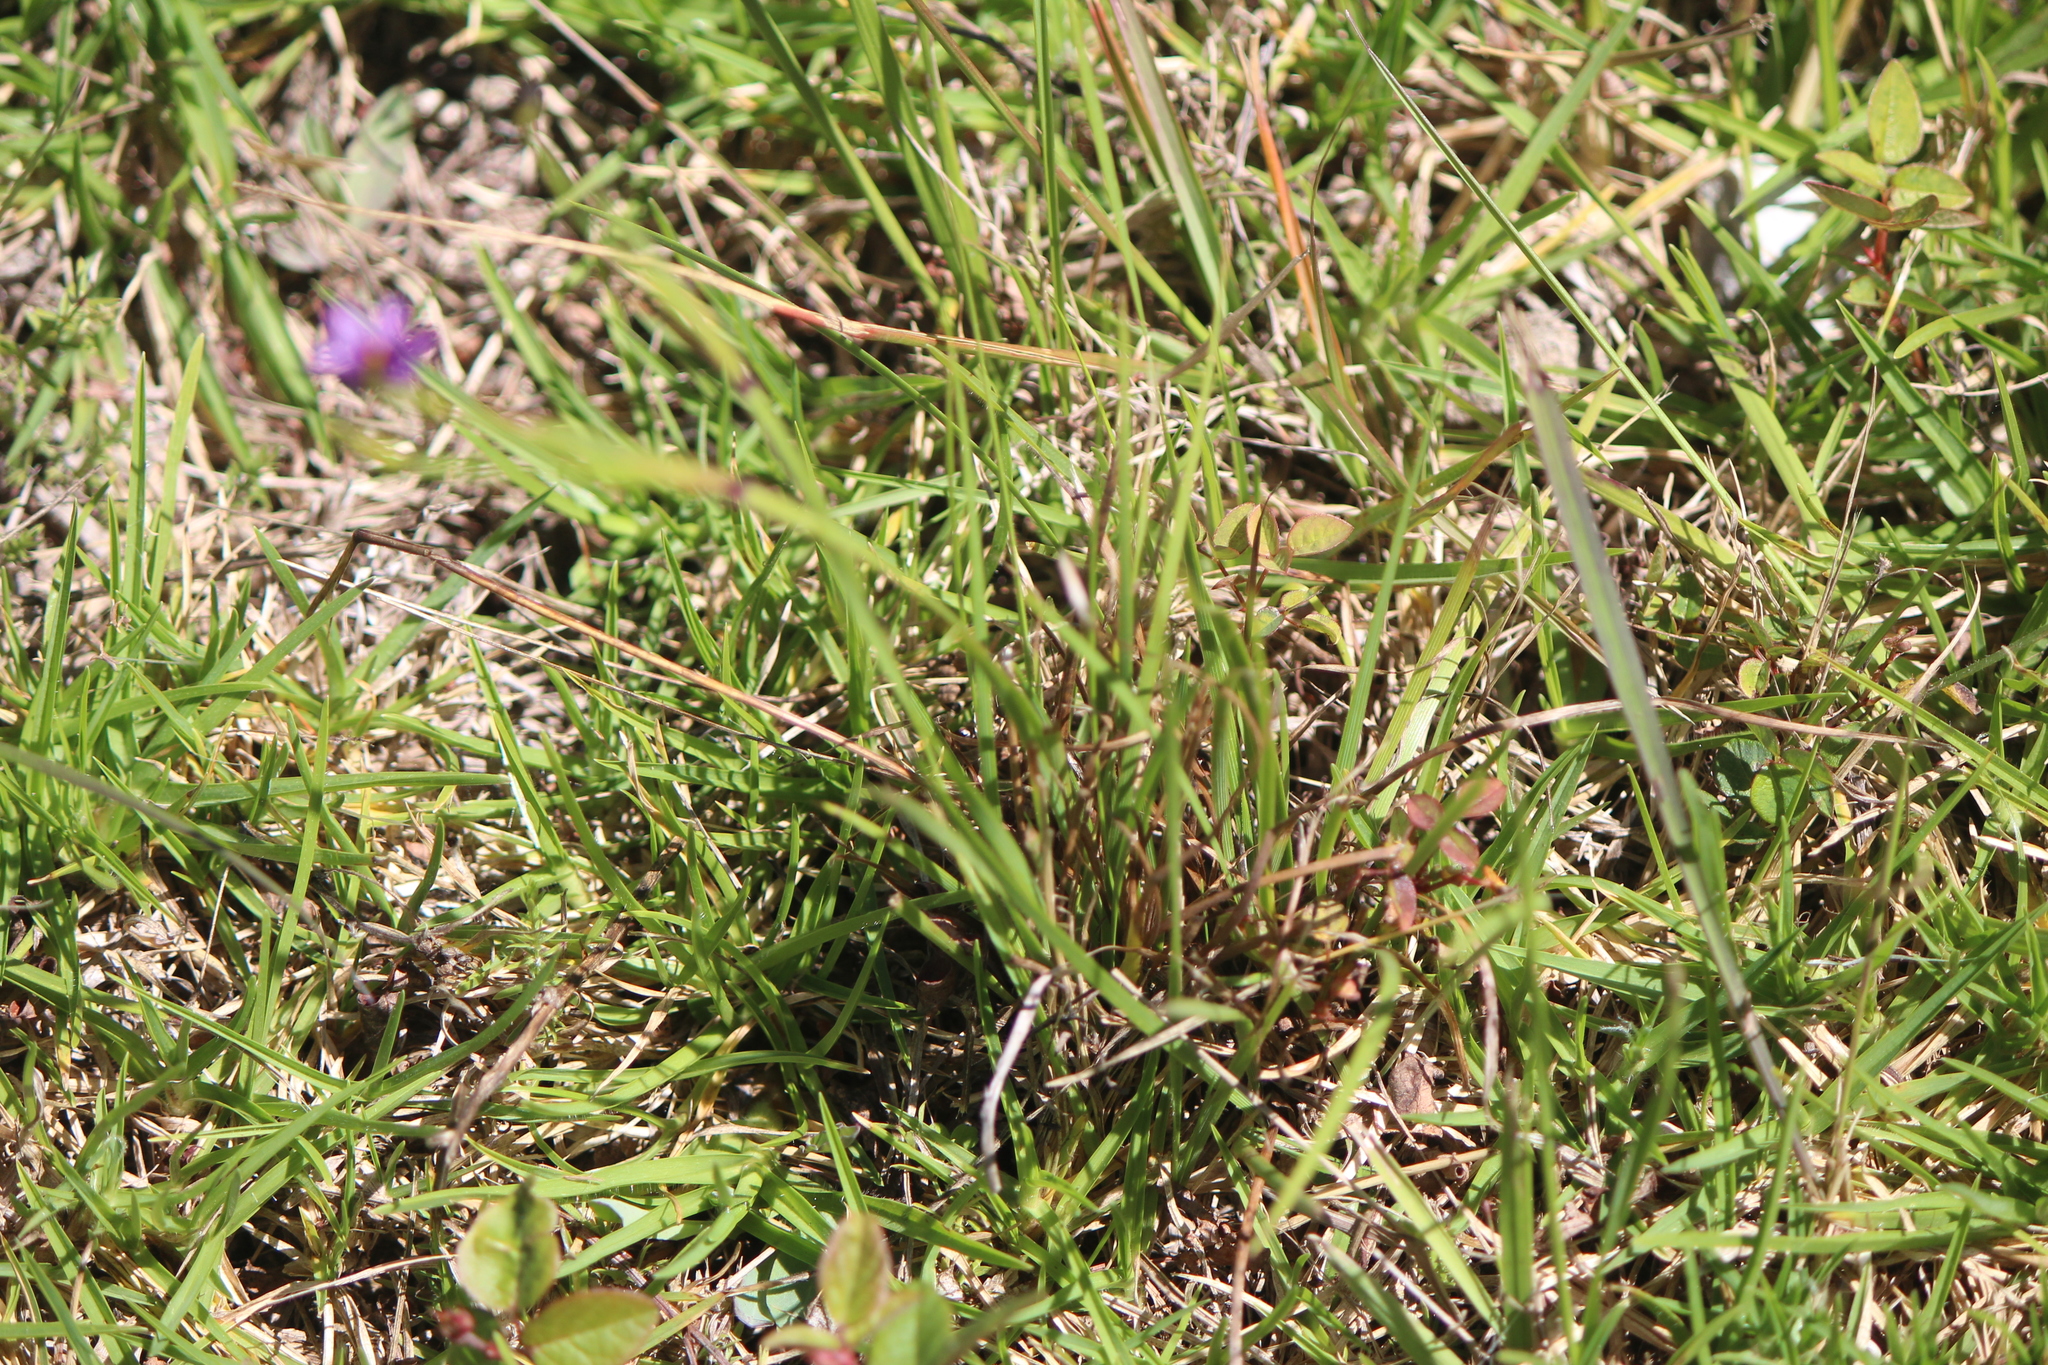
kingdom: Plantae
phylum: Tracheophyta
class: Liliopsida
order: Asparagales
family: Iridaceae
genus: Sisyrinchium
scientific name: Sisyrinchium scabrum
